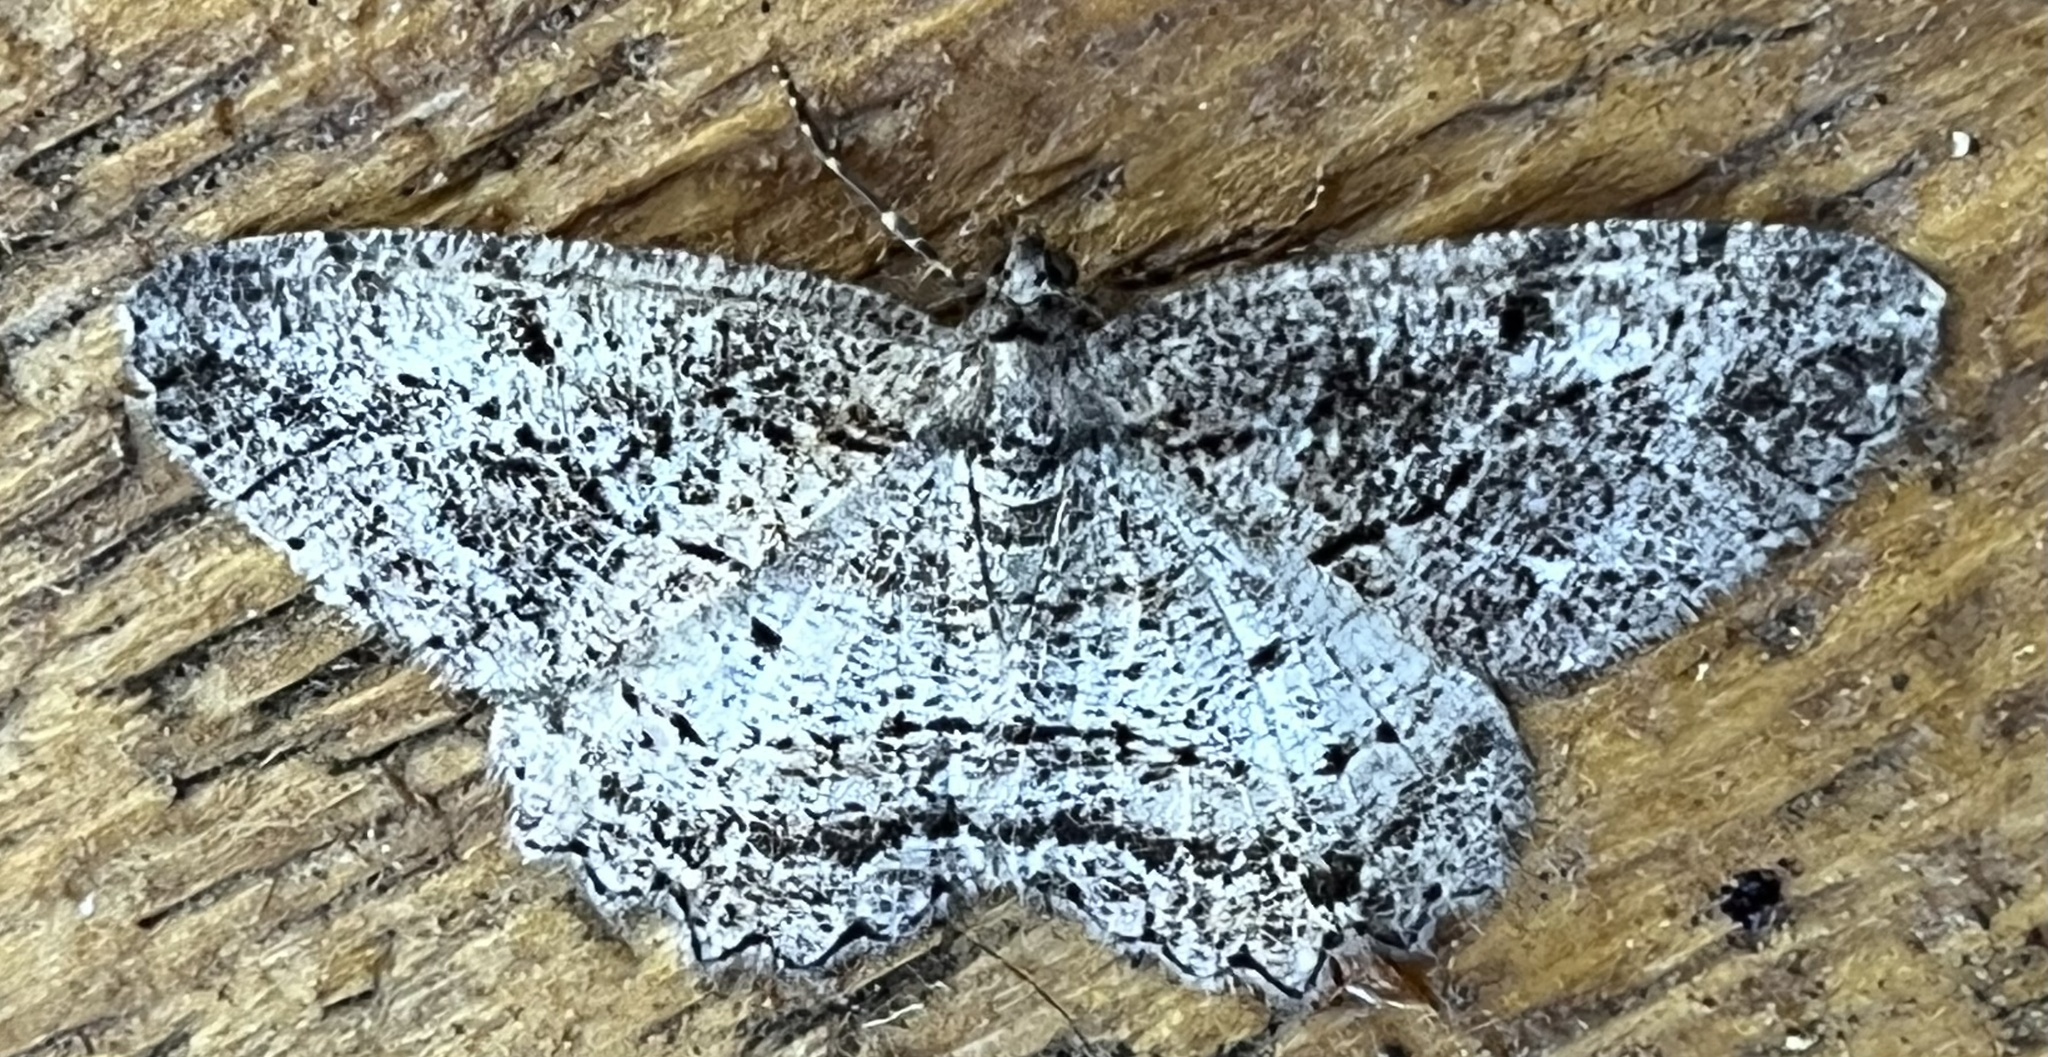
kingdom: Animalia
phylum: Arthropoda
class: Insecta
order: Lepidoptera
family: Geometridae
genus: Neoalcis
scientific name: Neoalcis californiaria
